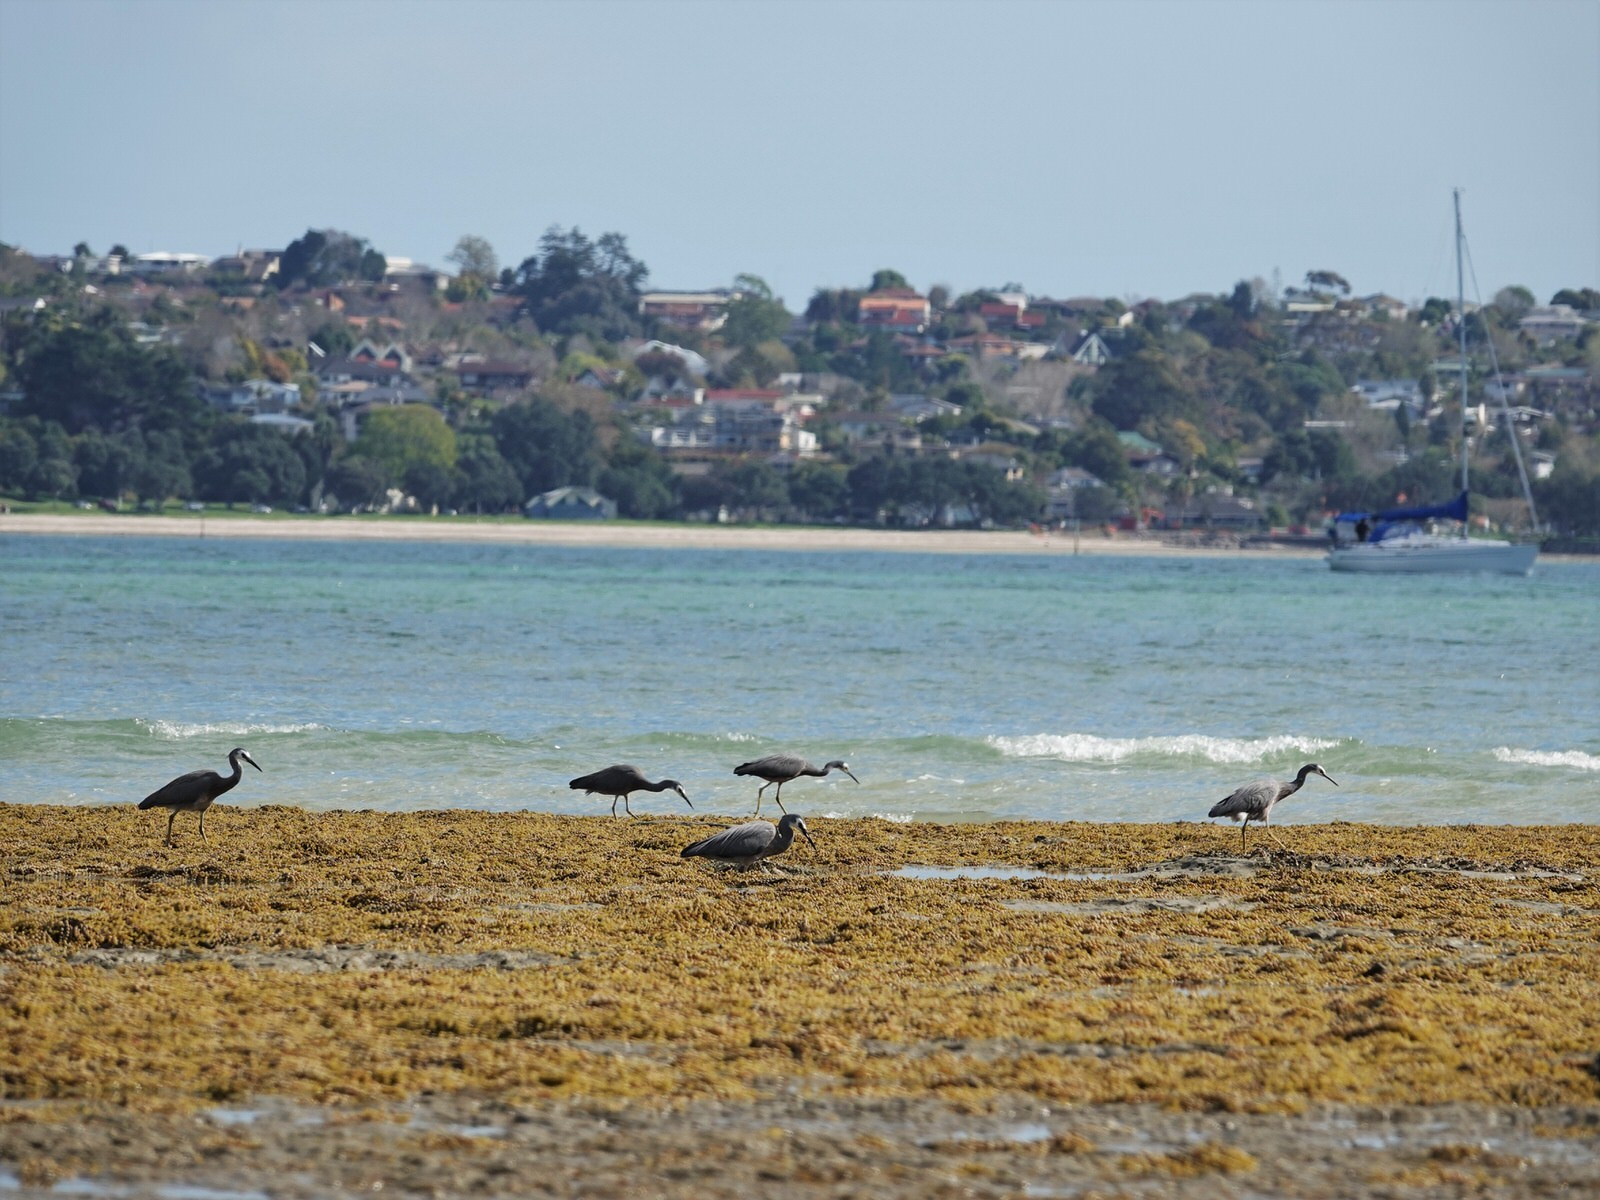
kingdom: Animalia
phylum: Chordata
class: Aves
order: Pelecaniformes
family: Ardeidae
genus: Egretta
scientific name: Egretta novaehollandiae
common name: White-faced heron
